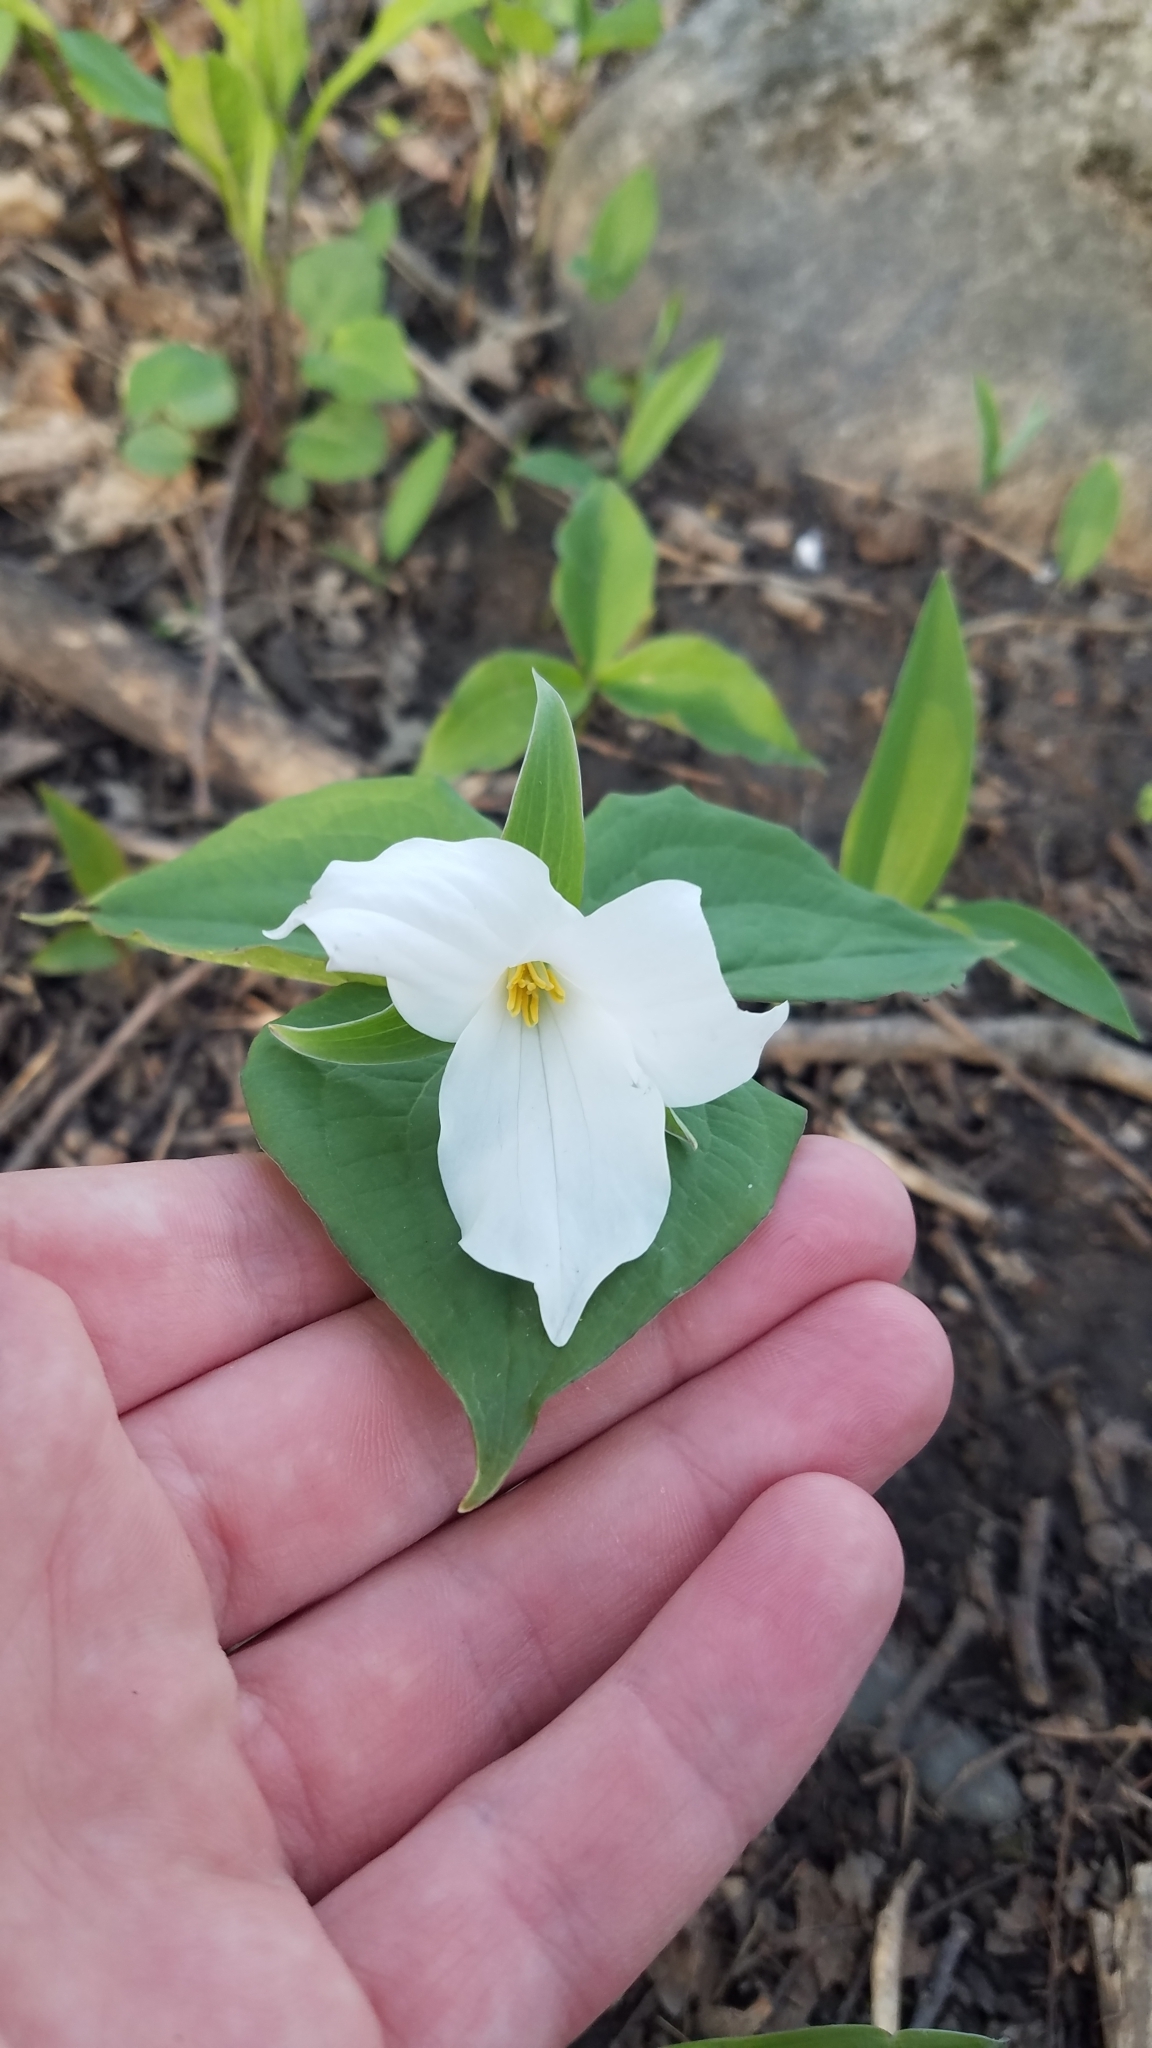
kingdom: Plantae
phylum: Tracheophyta
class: Liliopsida
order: Liliales
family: Melanthiaceae
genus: Trillium
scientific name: Trillium grandiflorum
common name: Great white trillium
